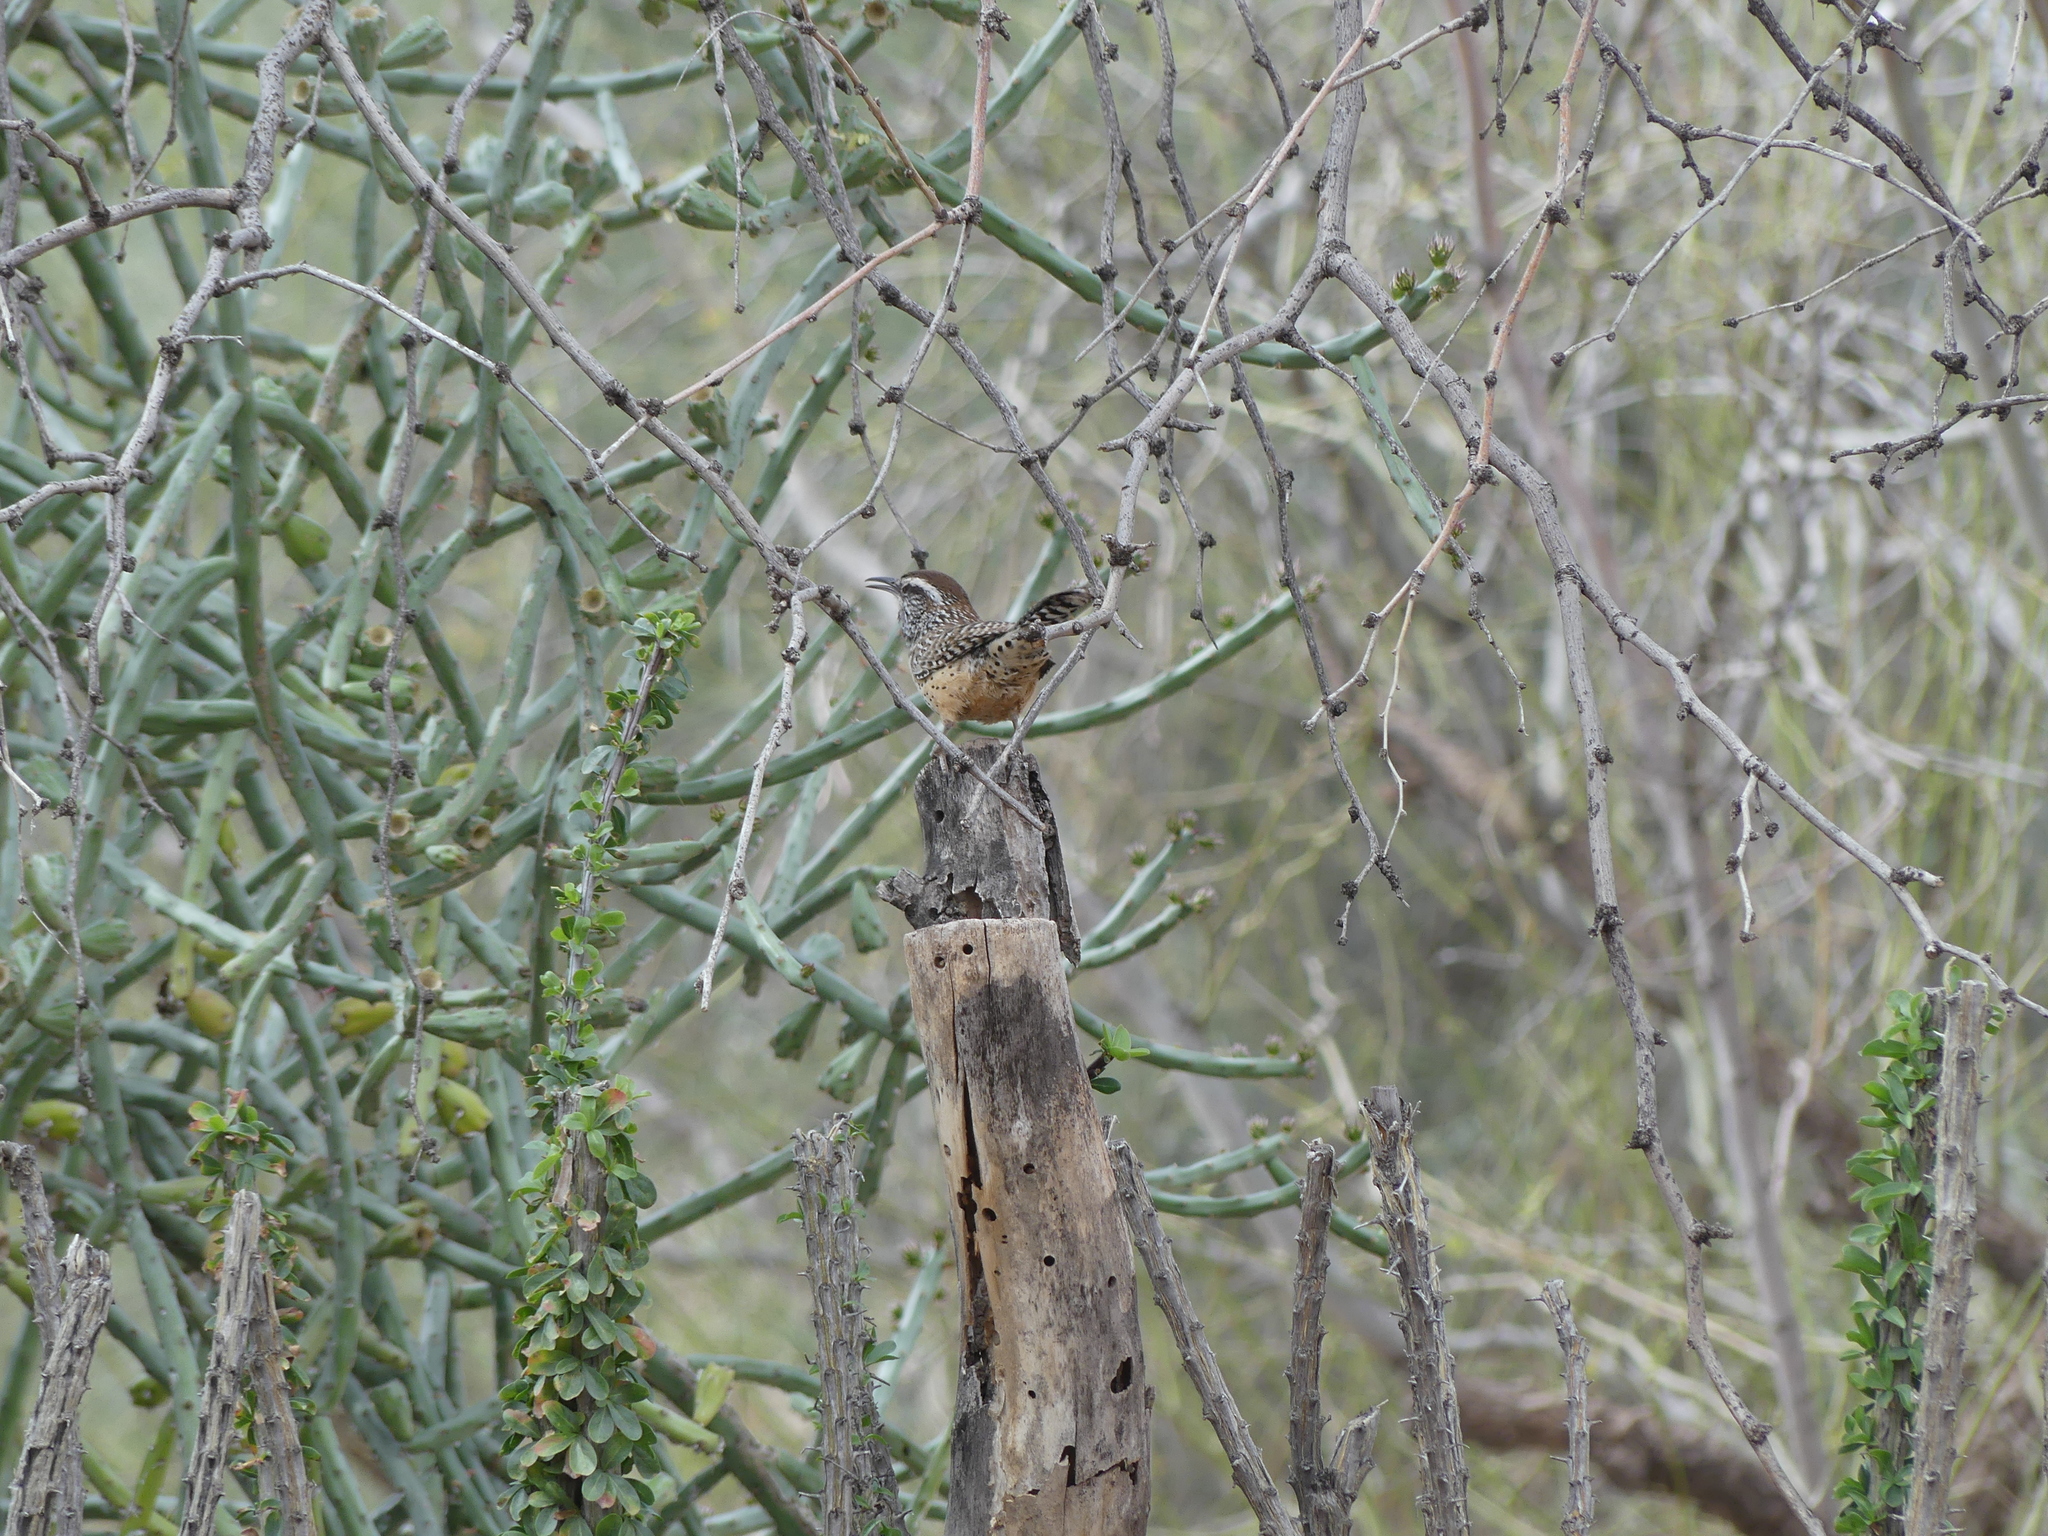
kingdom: Animalia
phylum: Chordata
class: Aves
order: Passeriformes
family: Troglodytidae
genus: Campylorhynchus
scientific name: Campylorhynchus brunneicapillus
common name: Cactus wren
